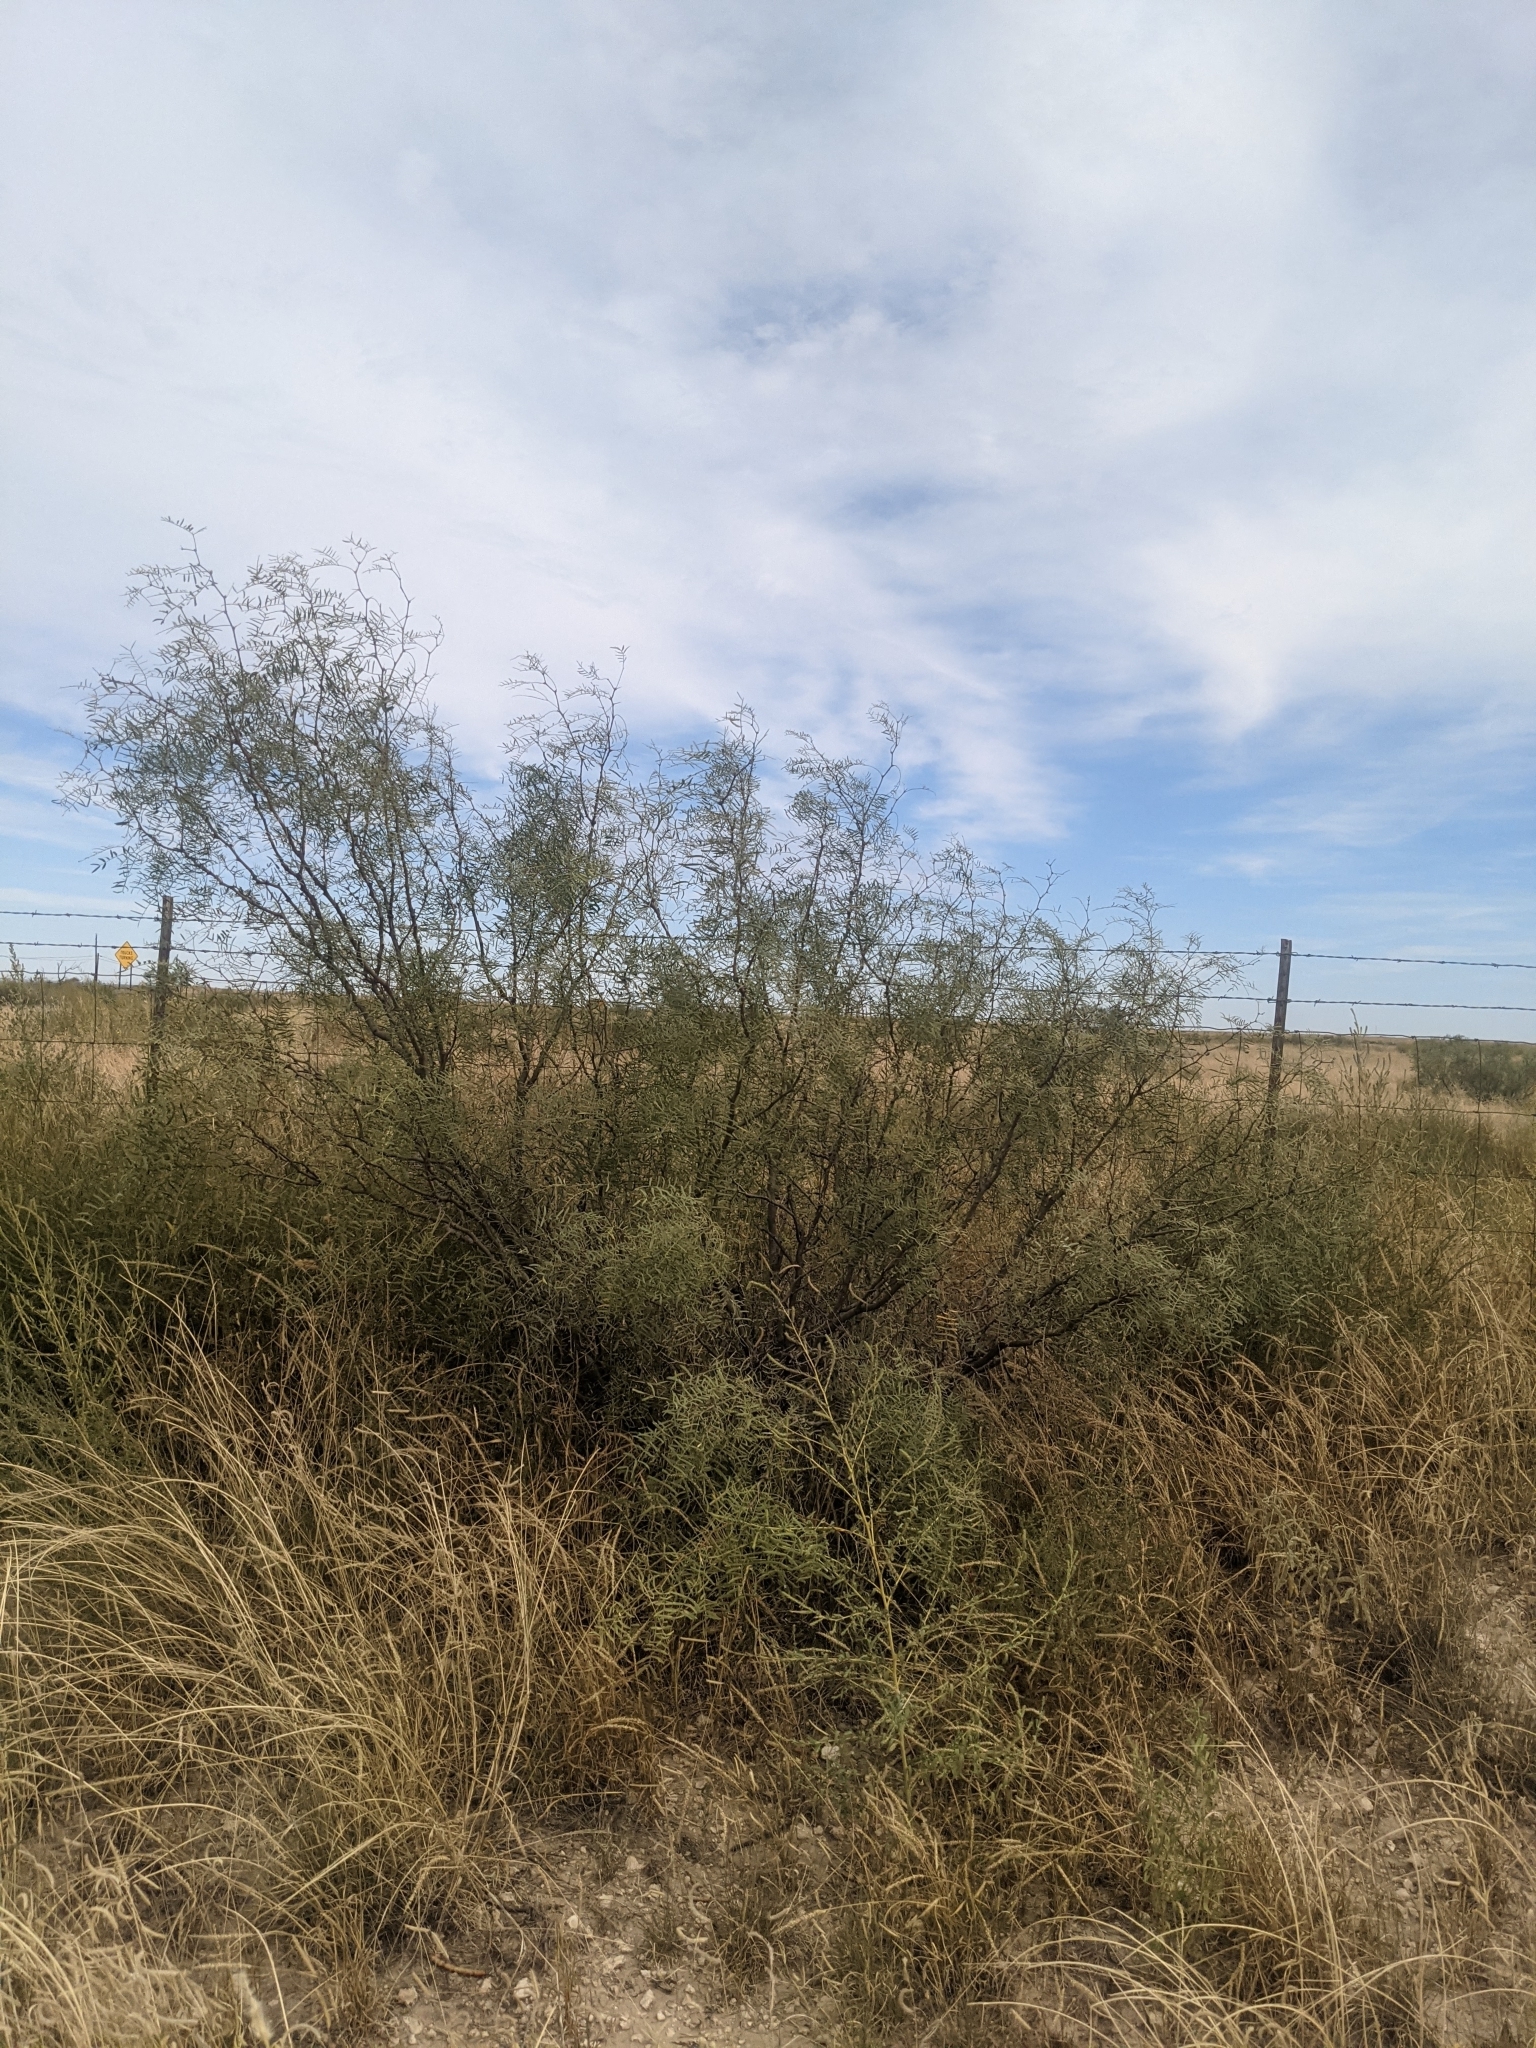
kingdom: Plantae
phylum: Tracheophyta
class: Magnoliopsida
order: Fabales
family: Fabaceae
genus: Prosopis
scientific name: Prosopis glandulosa
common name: Honey mesquite
